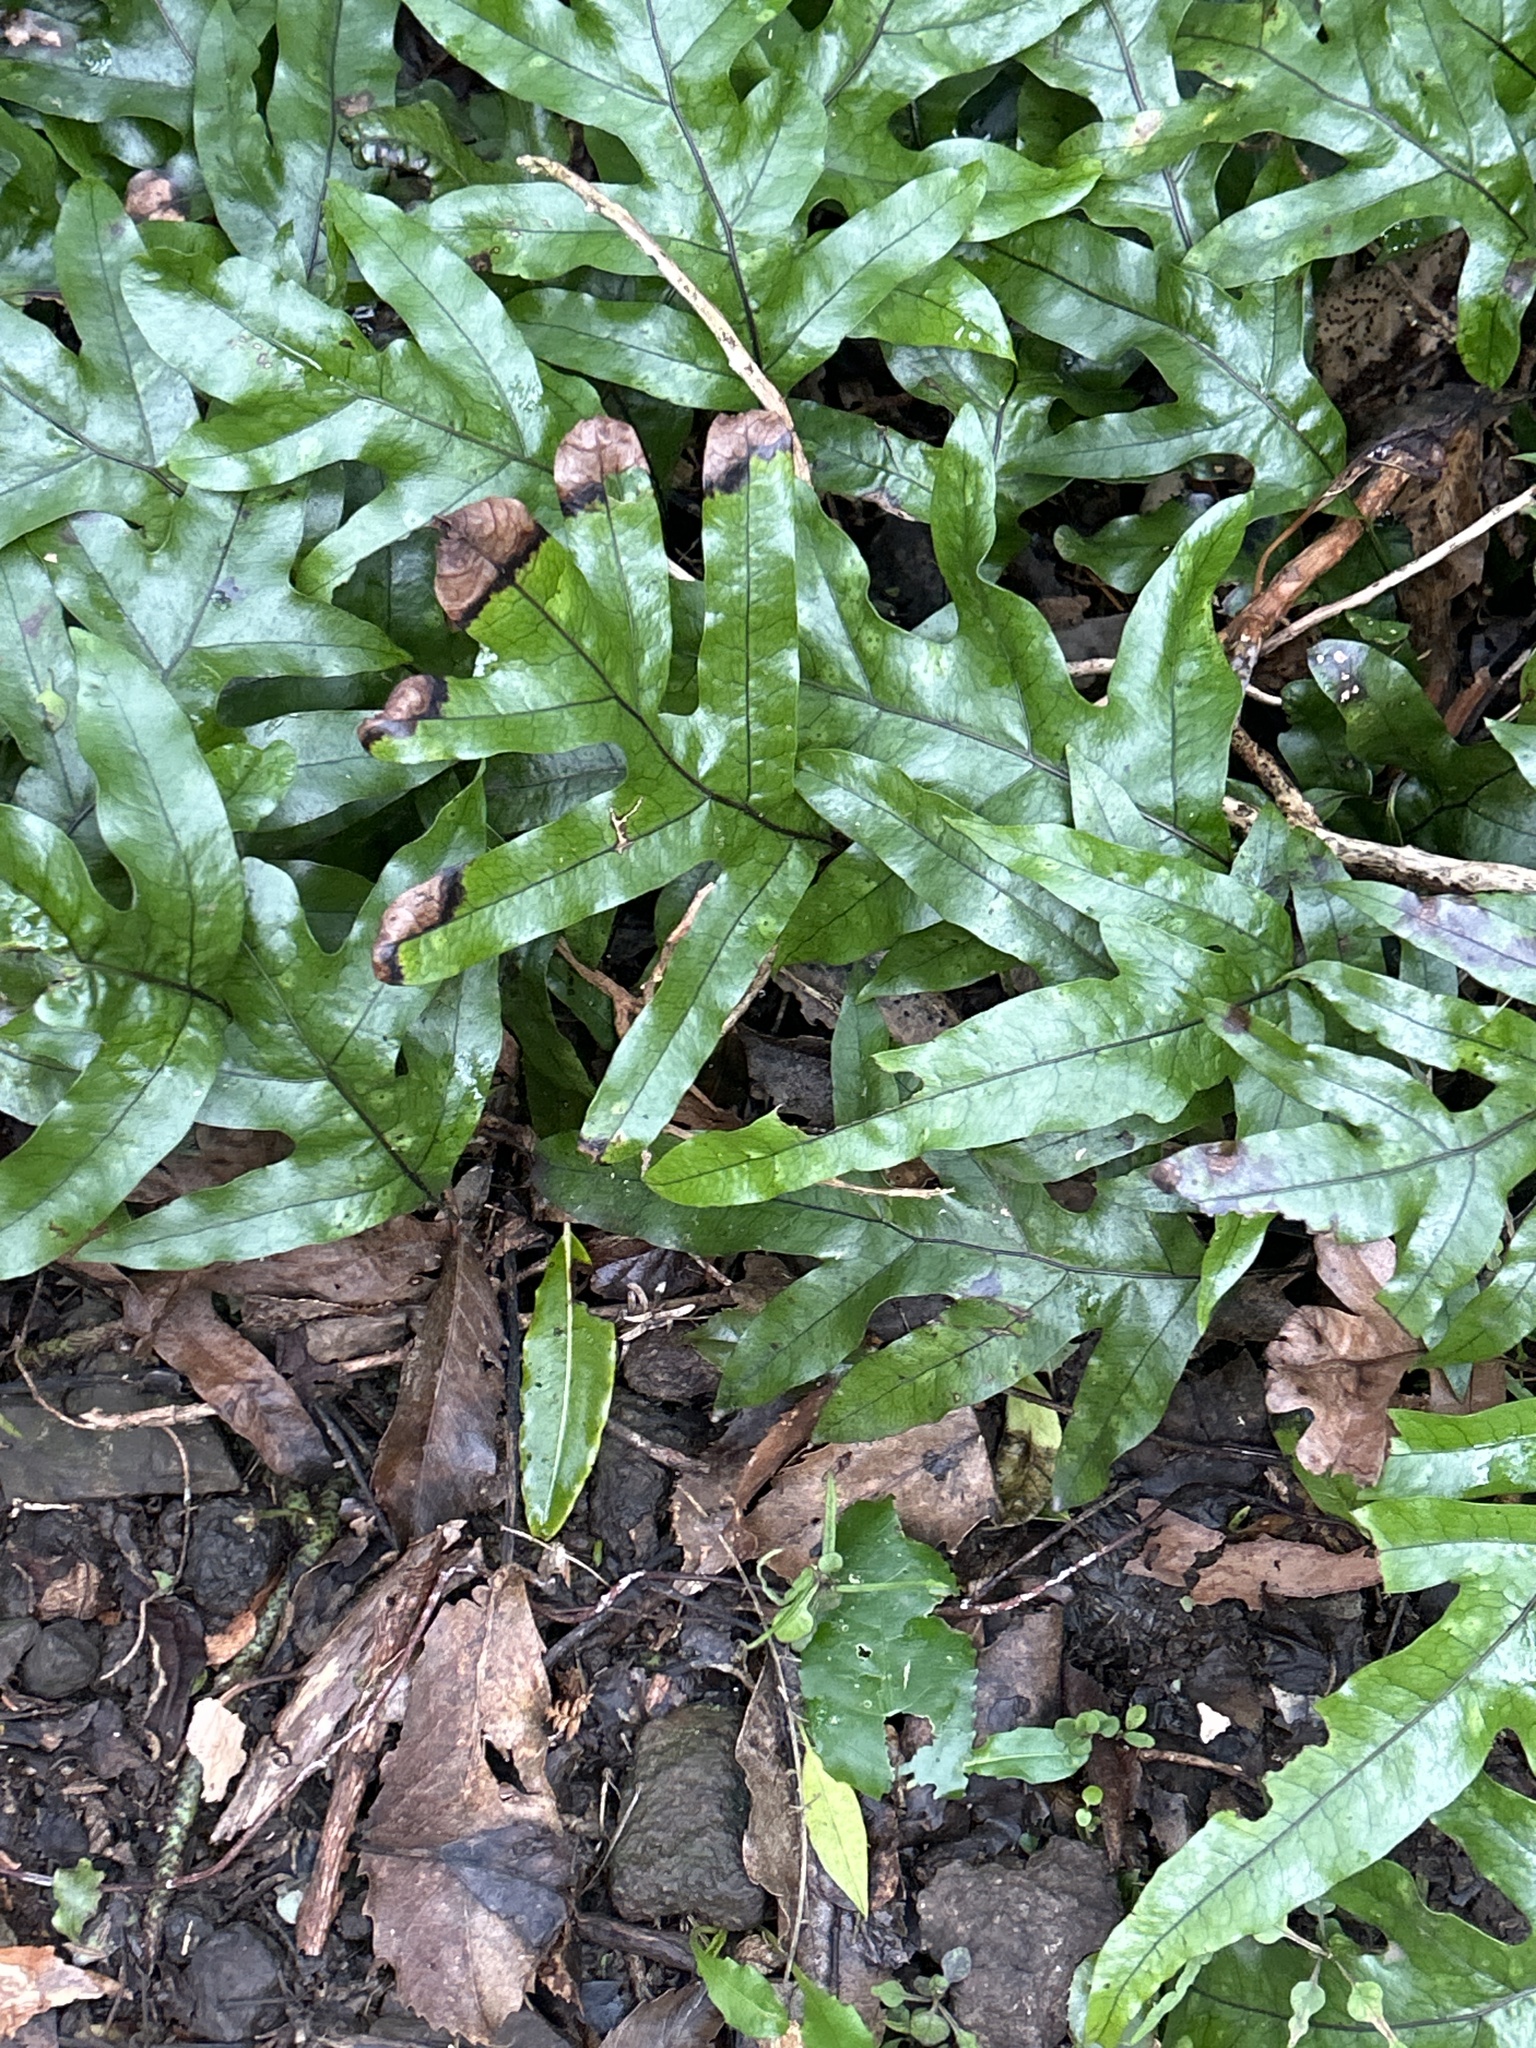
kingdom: Plantae
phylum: Tracheophyta
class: Polypodiopsida
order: Polypodiales
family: Polypodiaceae
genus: Lecanopteris
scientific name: Lecanopteris pustulata
